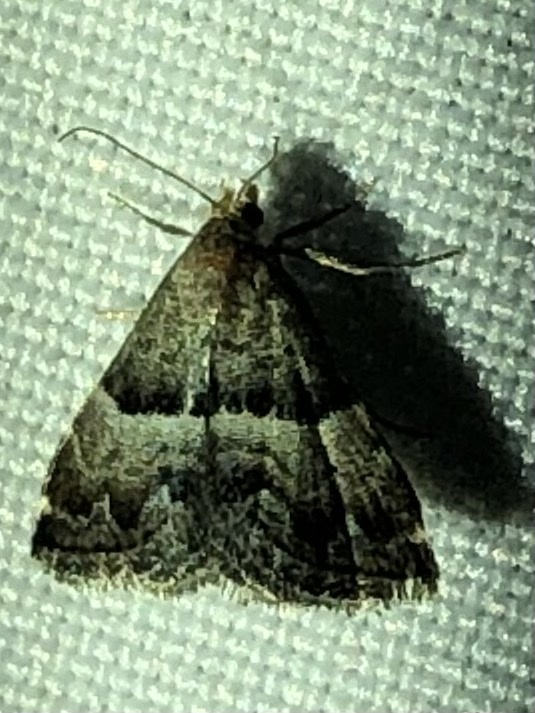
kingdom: Animalia
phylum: Arthropoda
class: Insecta
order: Lepidoptera
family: Noctuidae
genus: Odice
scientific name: Odice jucunda
